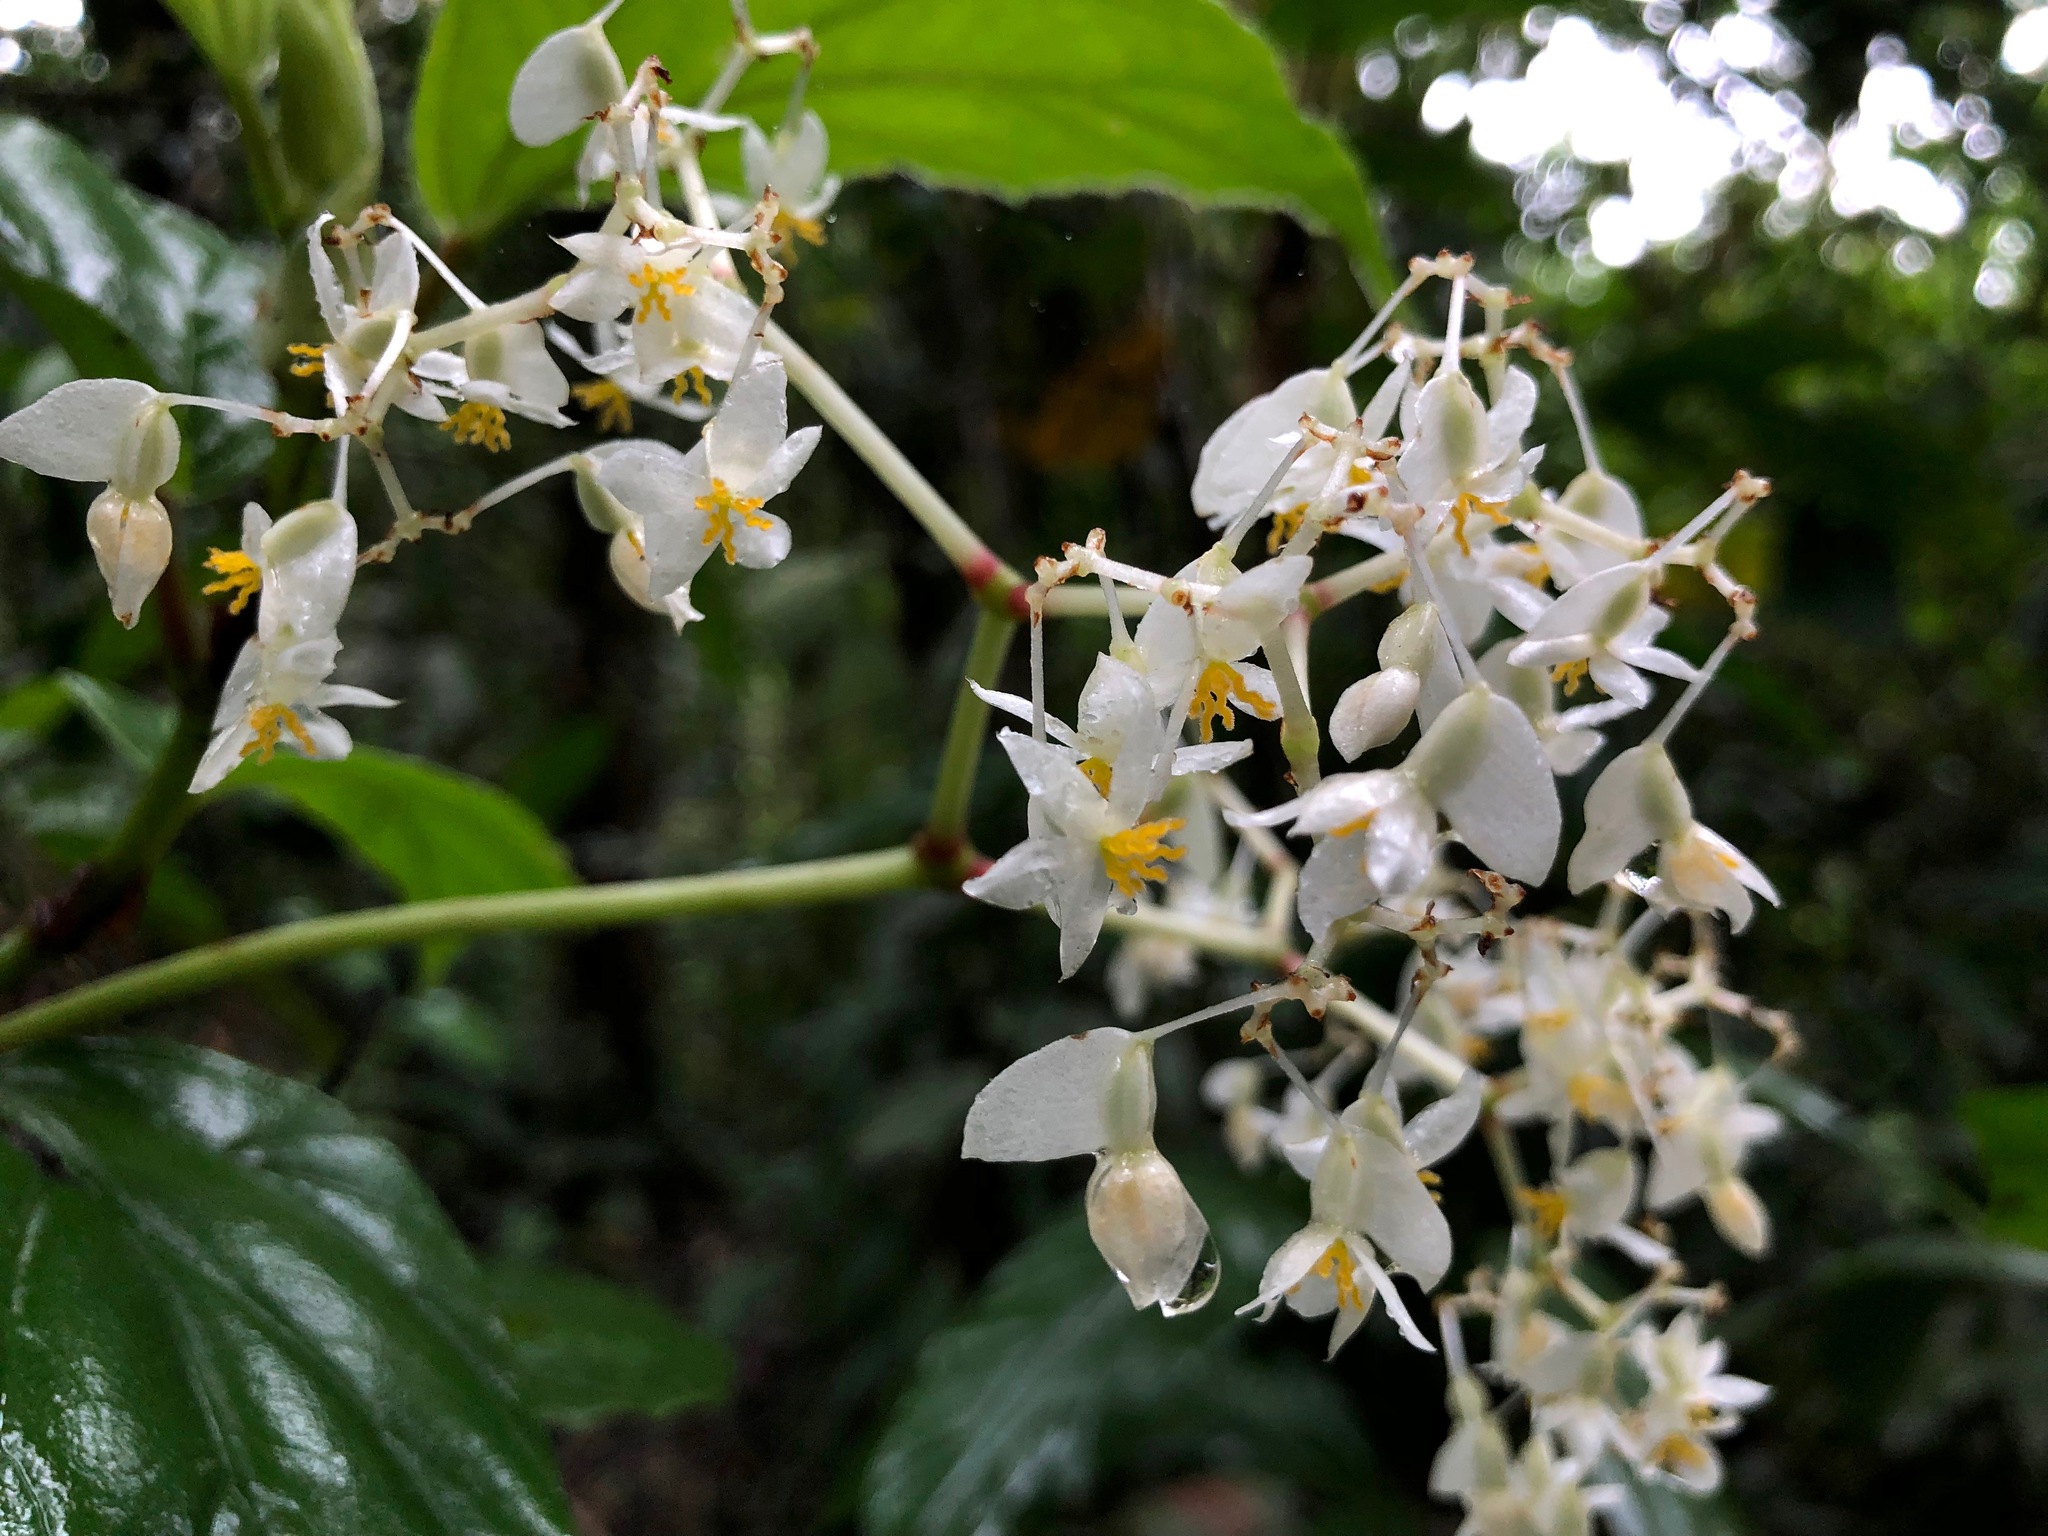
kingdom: Plantae
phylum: Tracheophyta
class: Magnoliopsida
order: Cucurbitales
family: Begoniaceae
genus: Begonia
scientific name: Begonia glabra
